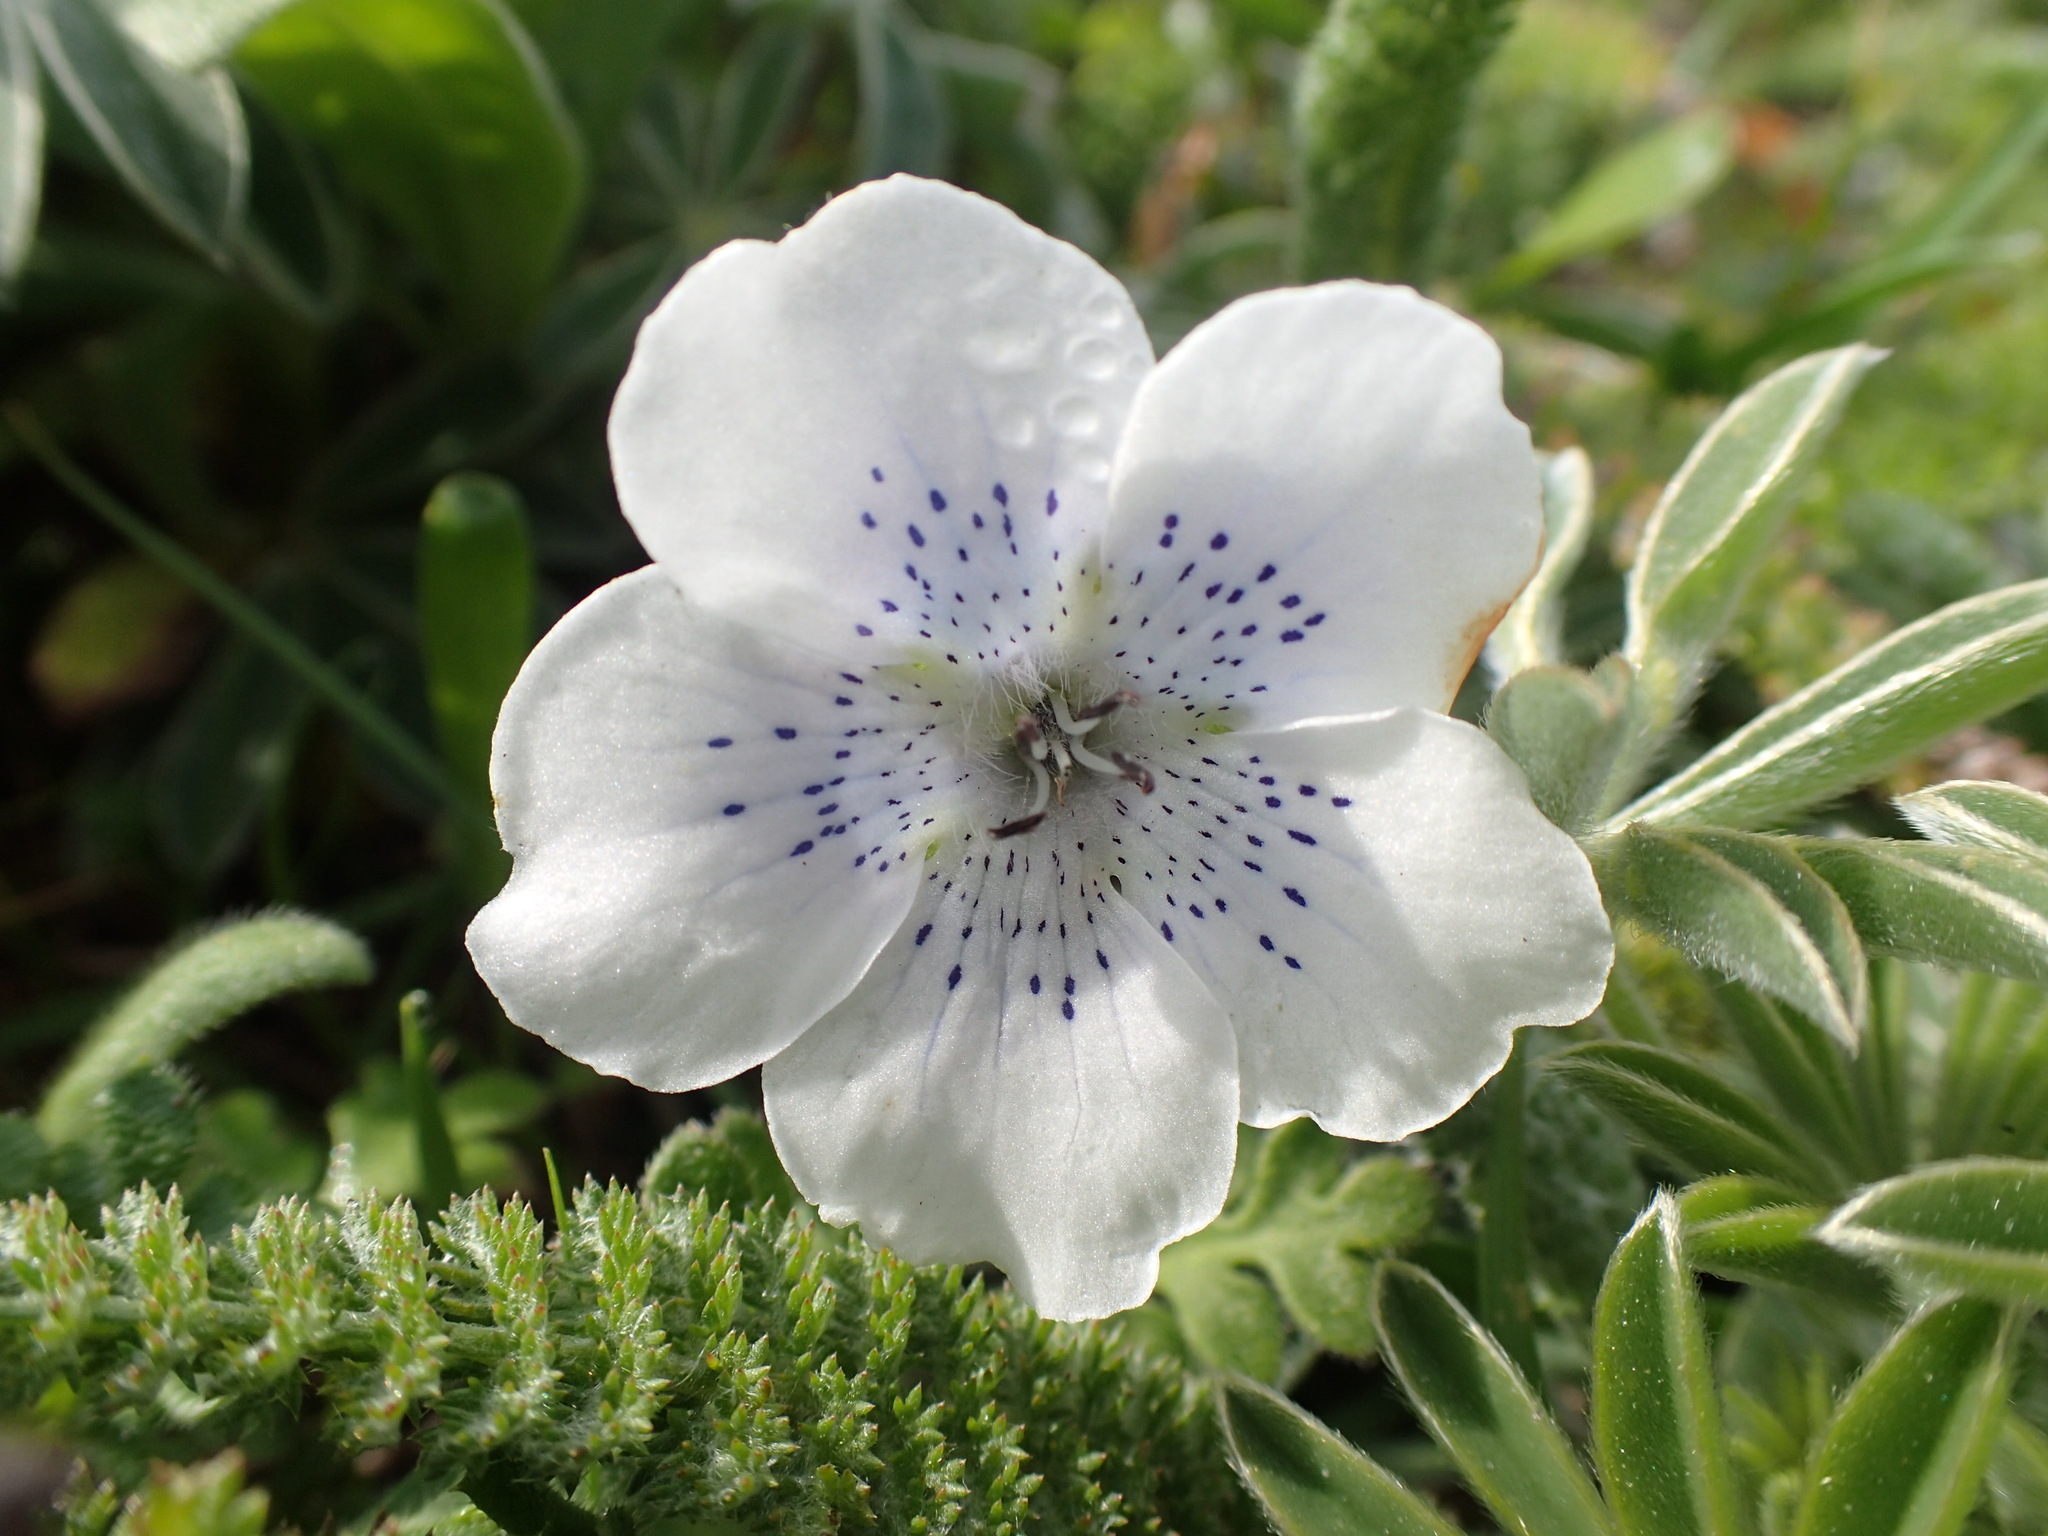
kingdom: Plantae
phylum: Tracheophyta
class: Magnoliopsida
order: Boraginales
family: Hydrophyllaceae
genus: Nemophila
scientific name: Nemophila menziesii
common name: Baby's-blue-eyes
